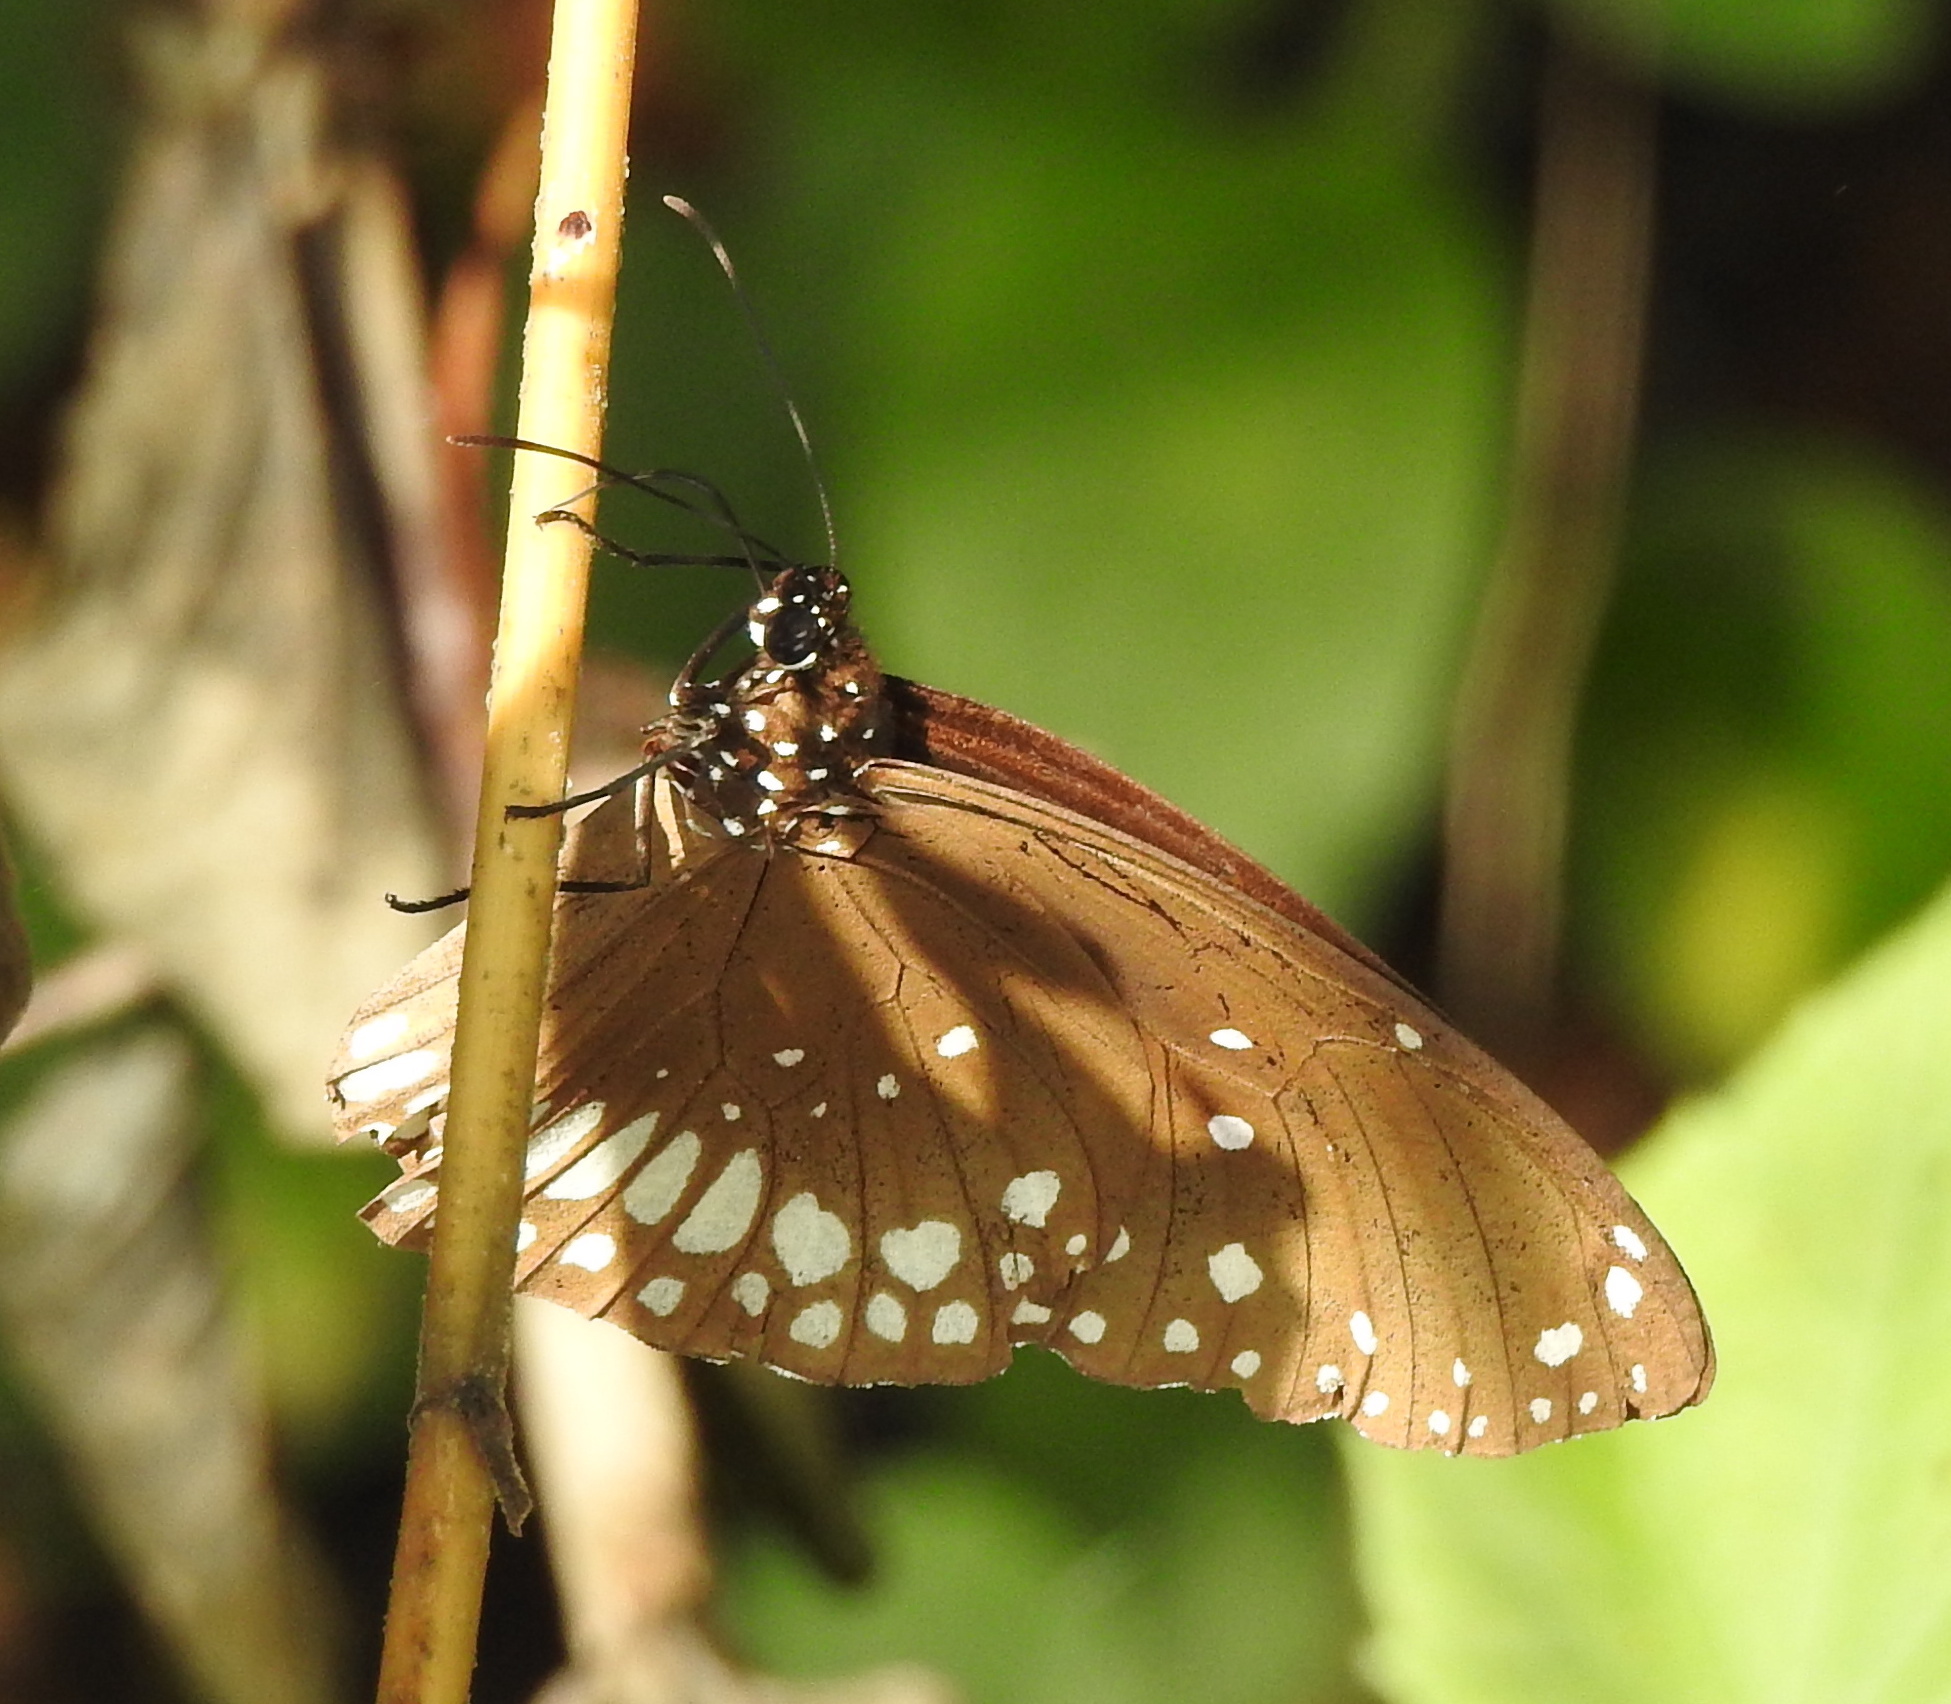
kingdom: Animalia
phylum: Arthropoda
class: Insecta
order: Lepidoptera
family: Nymphalidae
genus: Euploea
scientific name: Euploea core
